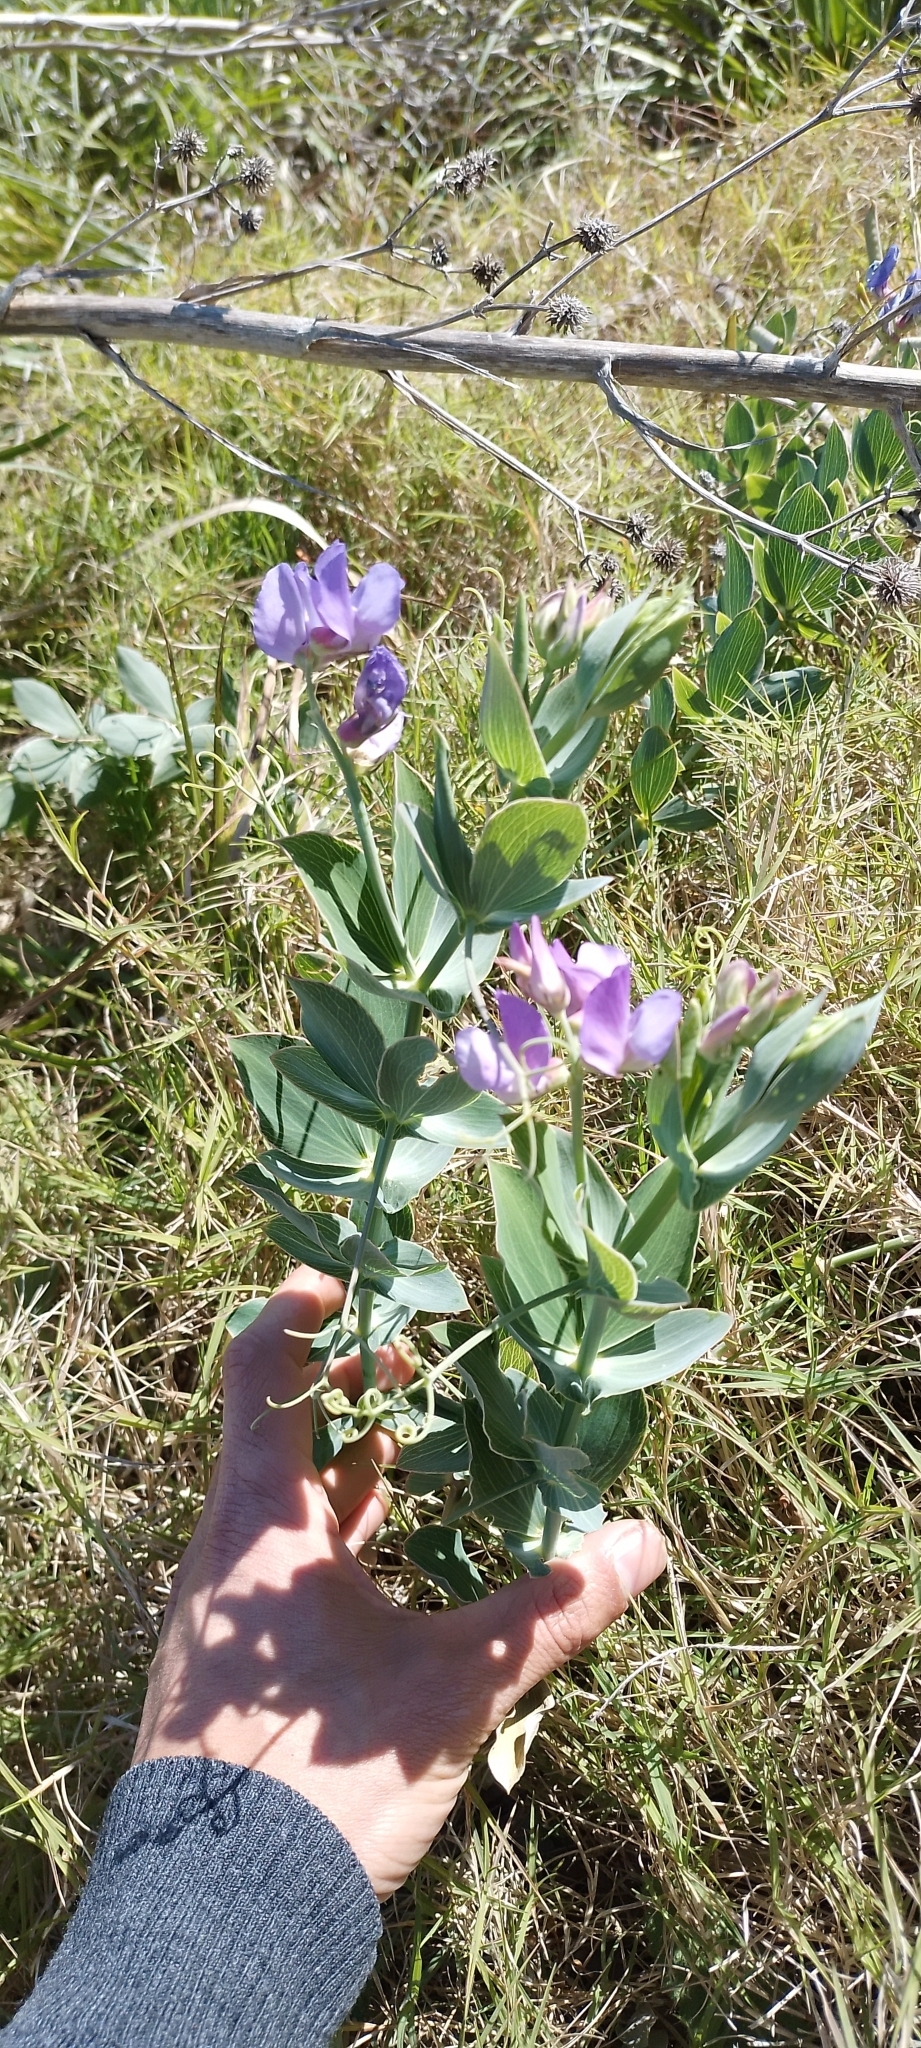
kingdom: Plantae
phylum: Tracheophyta
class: Magnoliopsida
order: Fabales
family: Fabaceae
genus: Lathyrus
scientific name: Lathyrus nervosus
